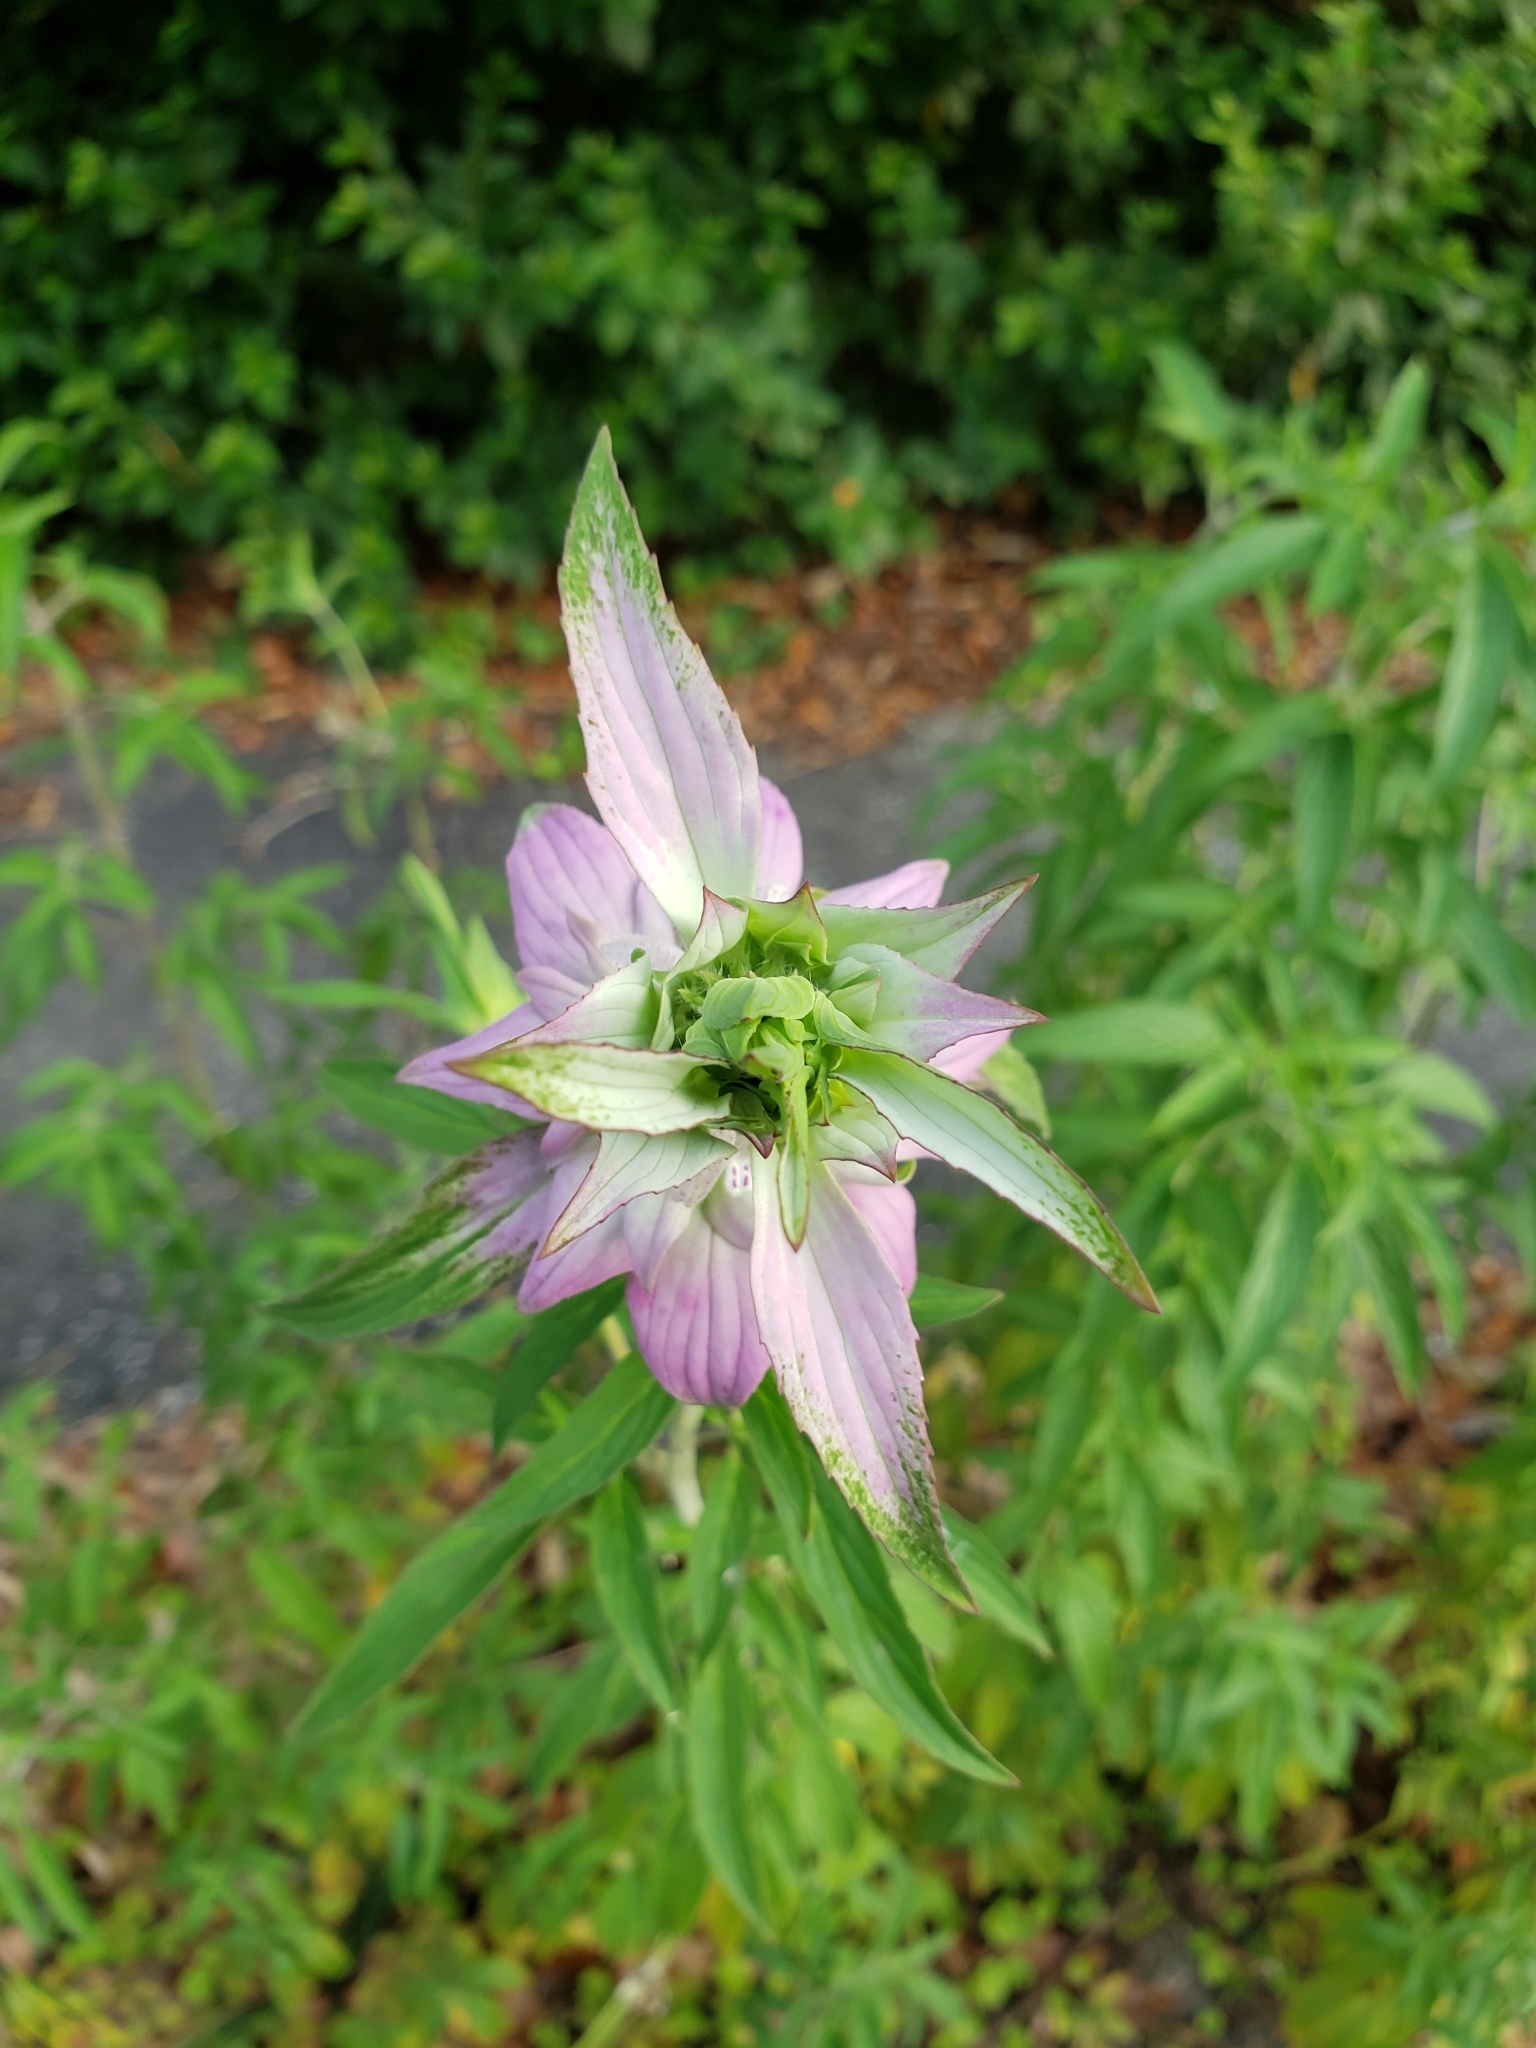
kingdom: Plantae
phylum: Tracheophyta
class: Magnoliopsida
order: Lamiales
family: Lamiaceae
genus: Monarda
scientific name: Monarda punctata
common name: Dotted monarda
